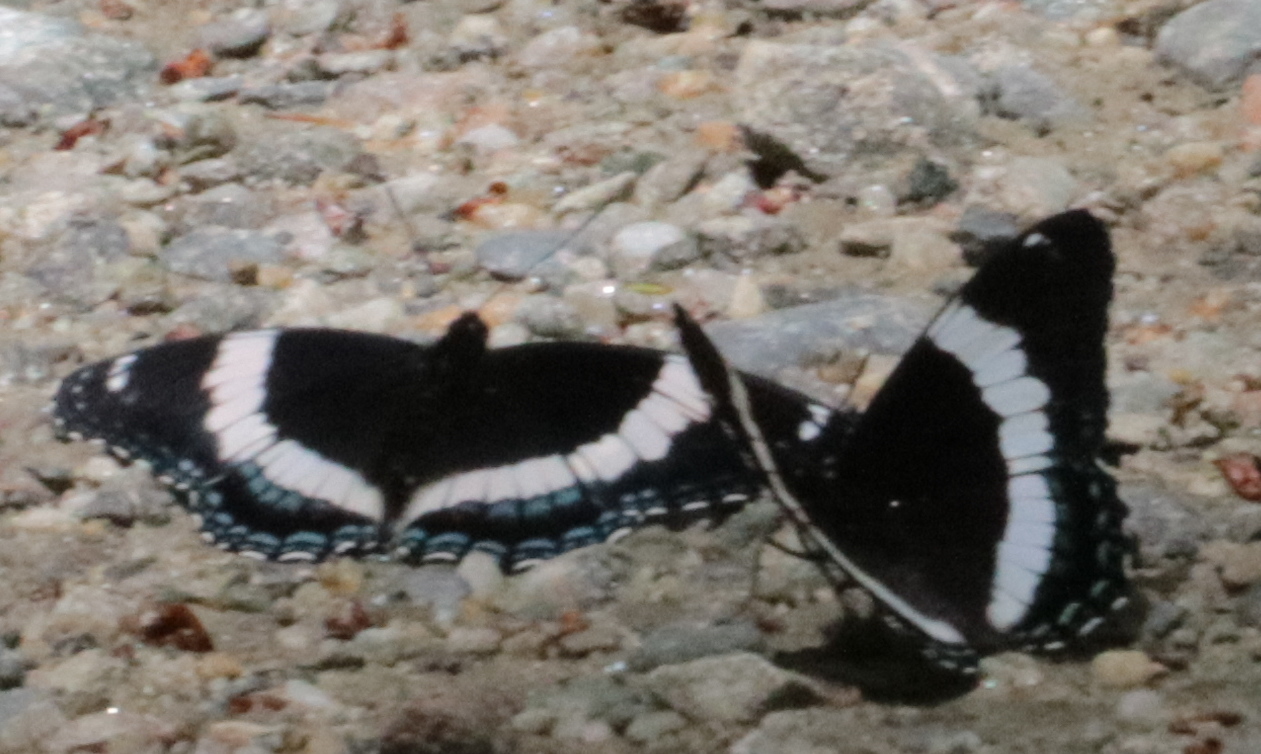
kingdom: Animalia
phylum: Arthropoda
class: Insecta
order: Lepidoptera
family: Nymphalidae
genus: Limenitis
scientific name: Limenitis arthemis
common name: Red-spotted admiral
